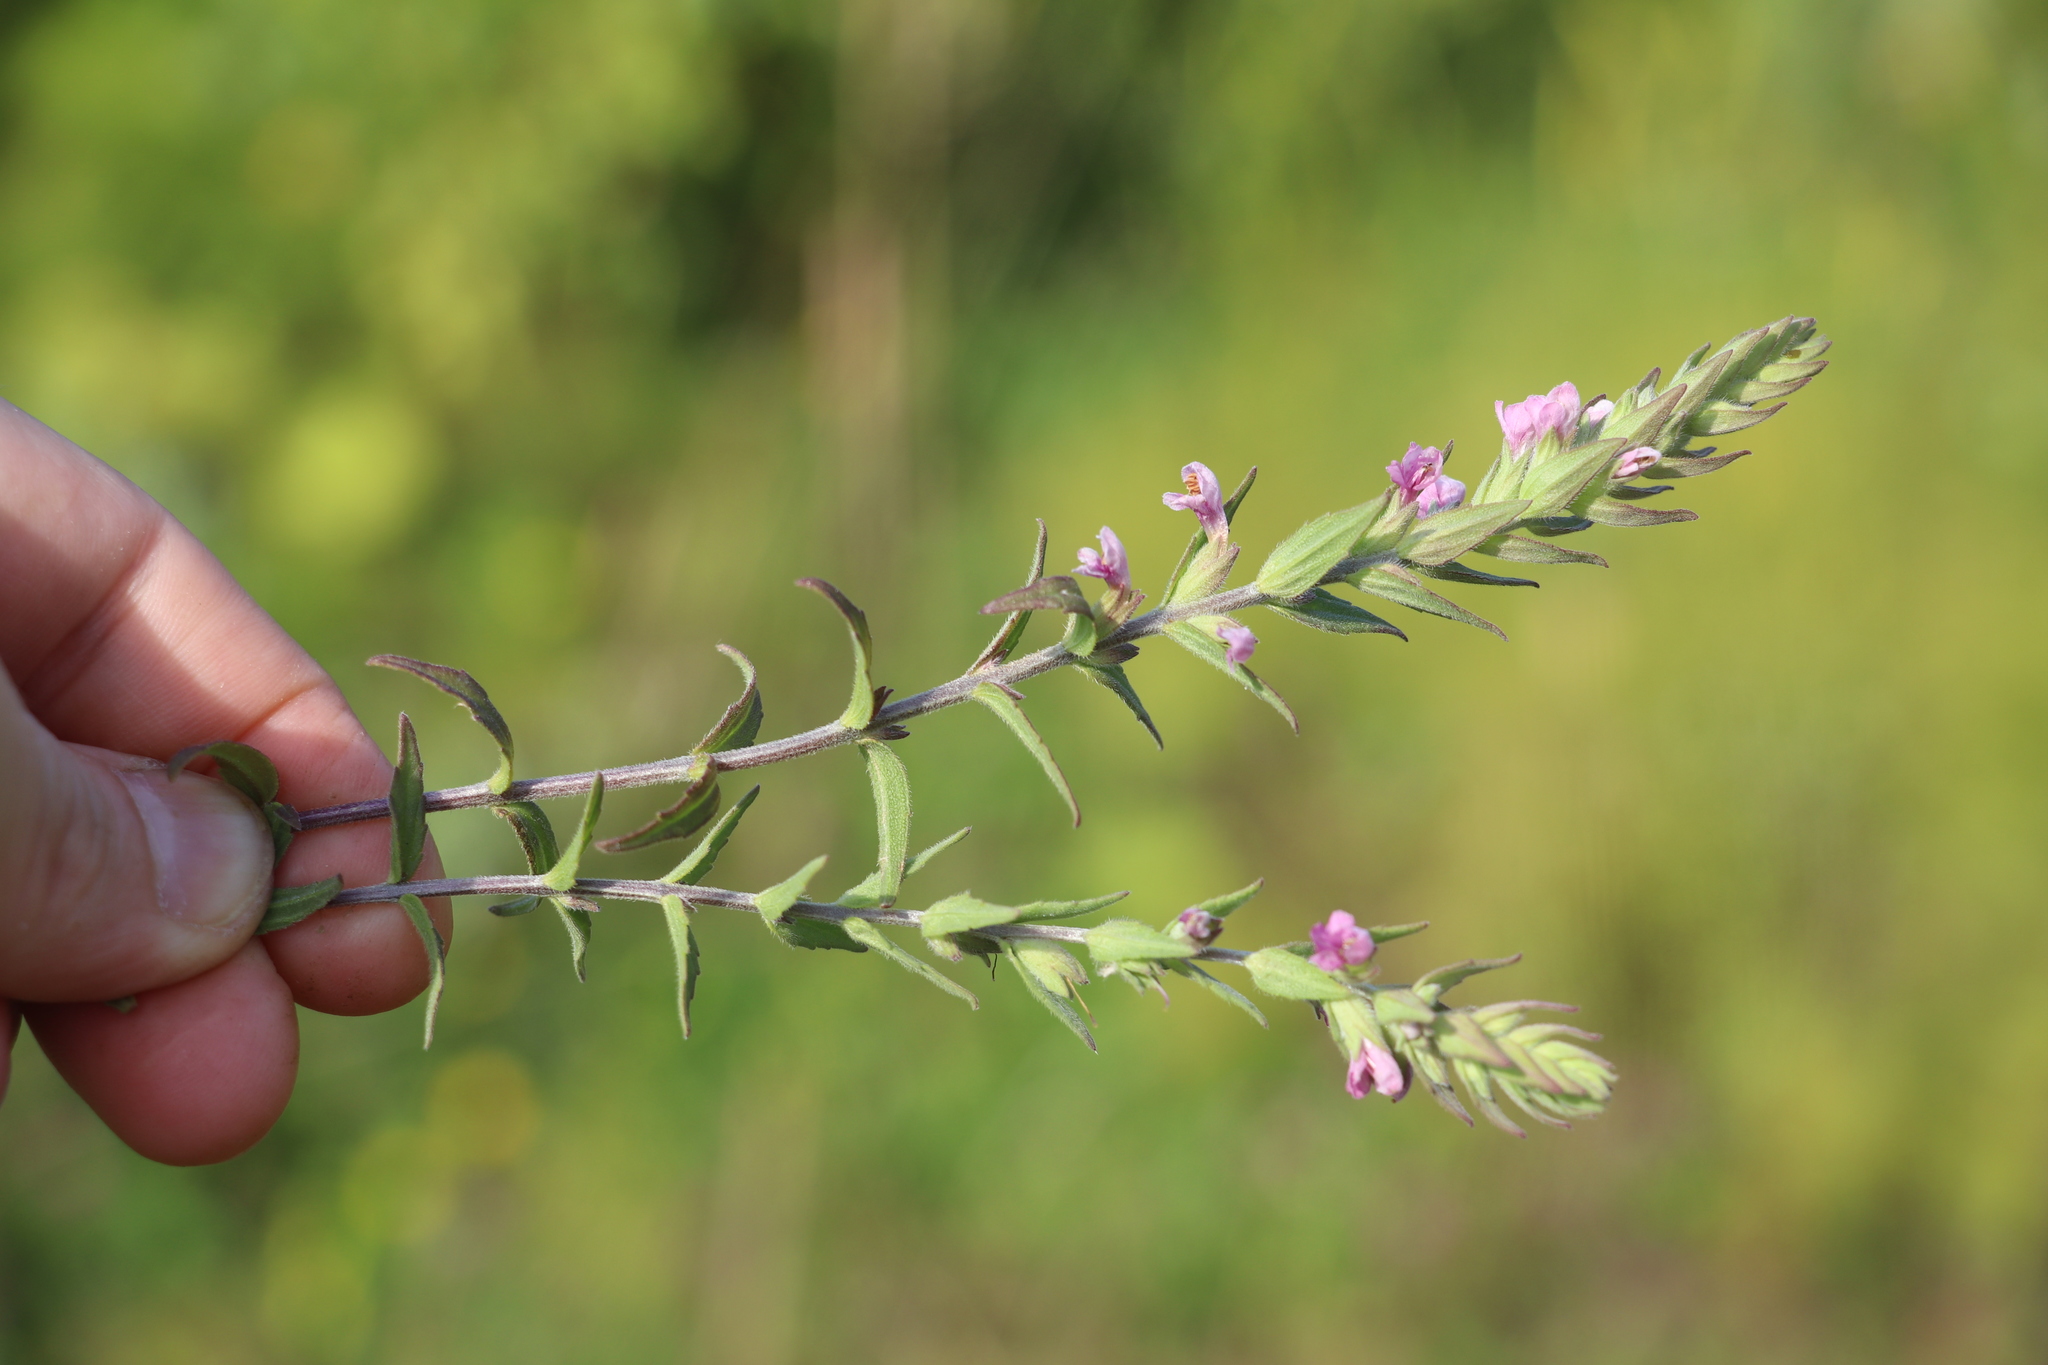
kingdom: Plantae
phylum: Tracheophyta
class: Magnoliopsida
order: Lamiales
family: Orobanchaceae
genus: Odontites
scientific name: Odontites vulgaris
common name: Broomrape
